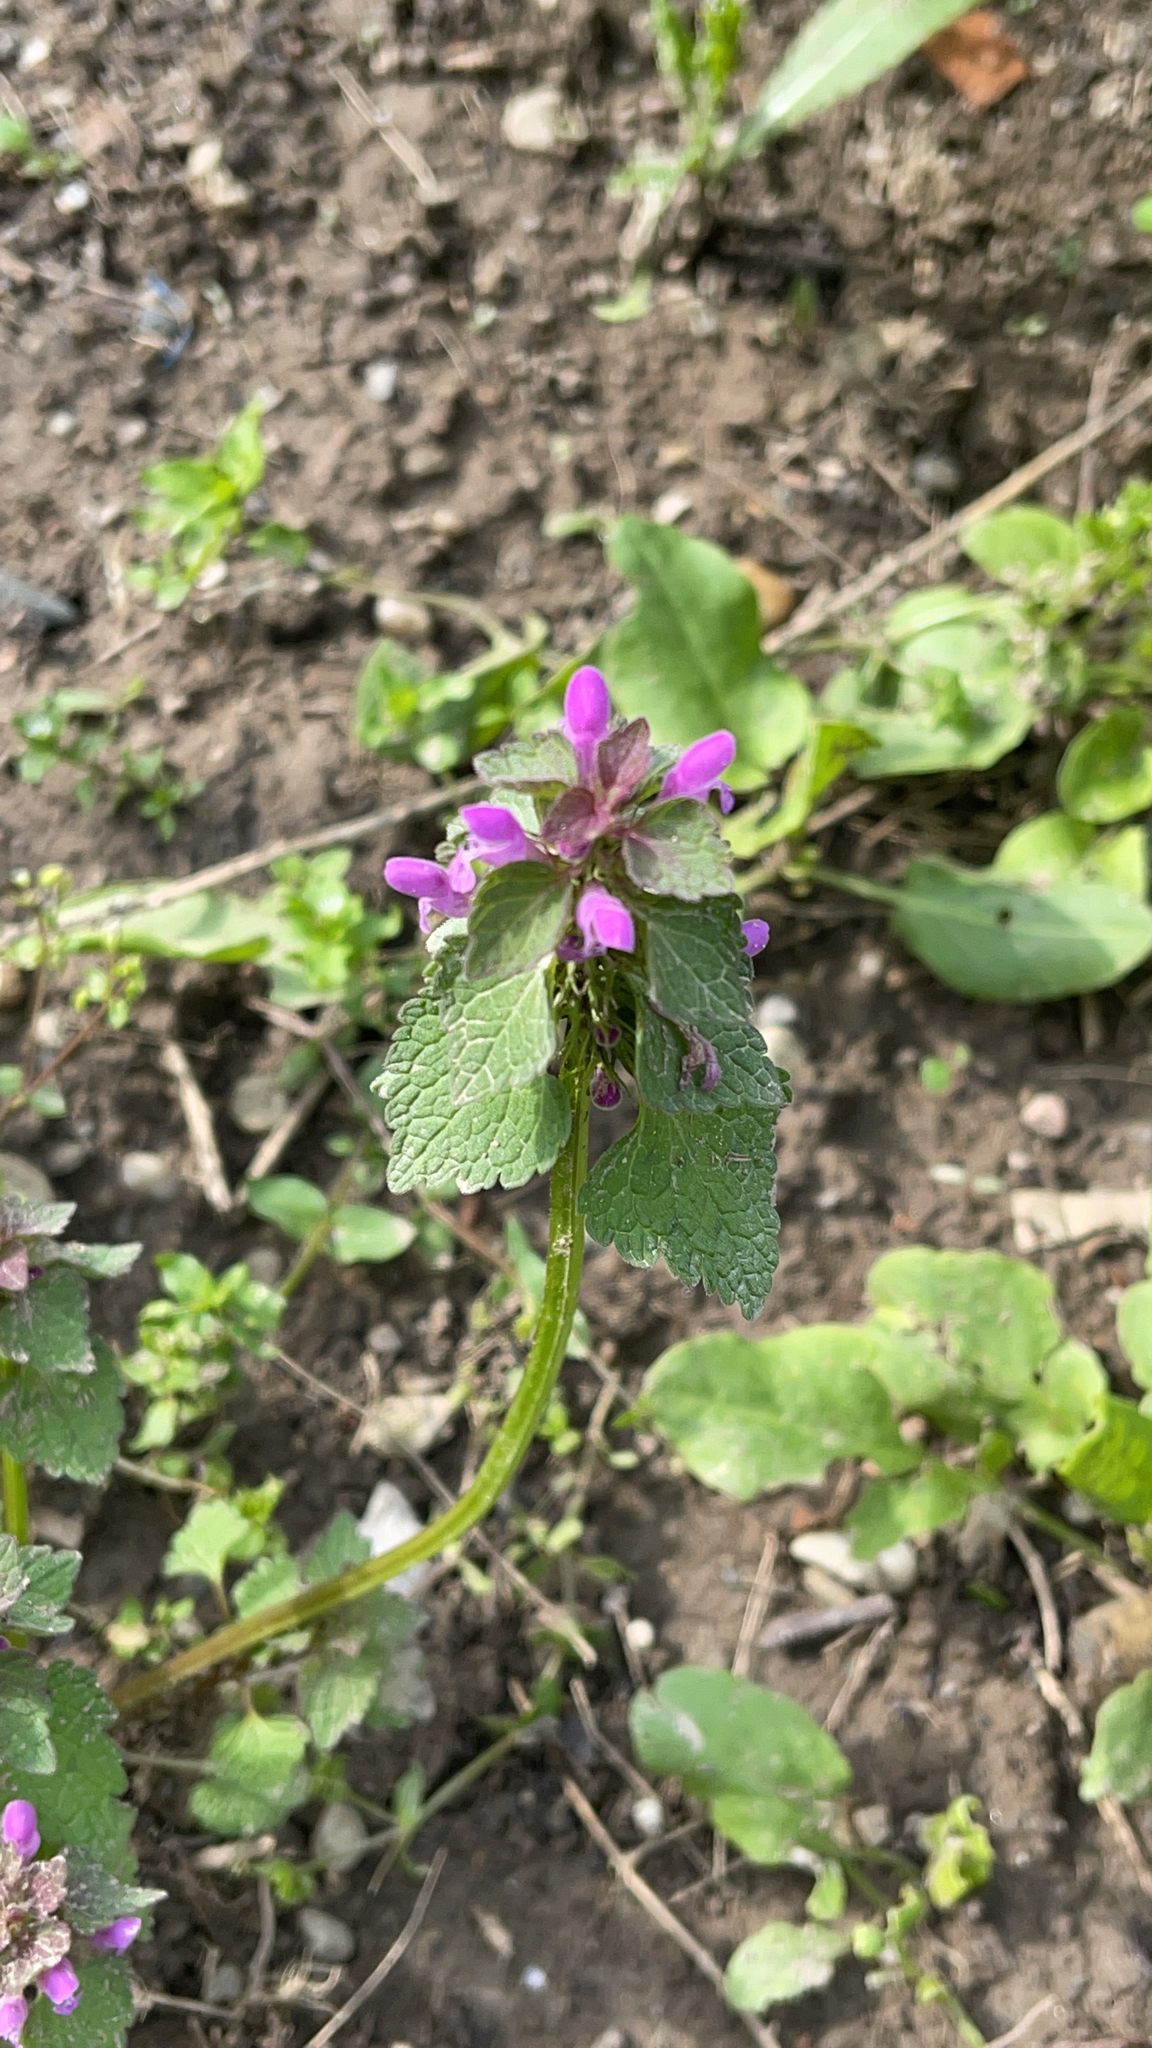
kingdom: Plantae
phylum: Tracheophyta
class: Magnoliopsida
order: Lamiales
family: Lamiaceae
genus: Lamium
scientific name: Lamium purpureum
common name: Red dead-nettle
